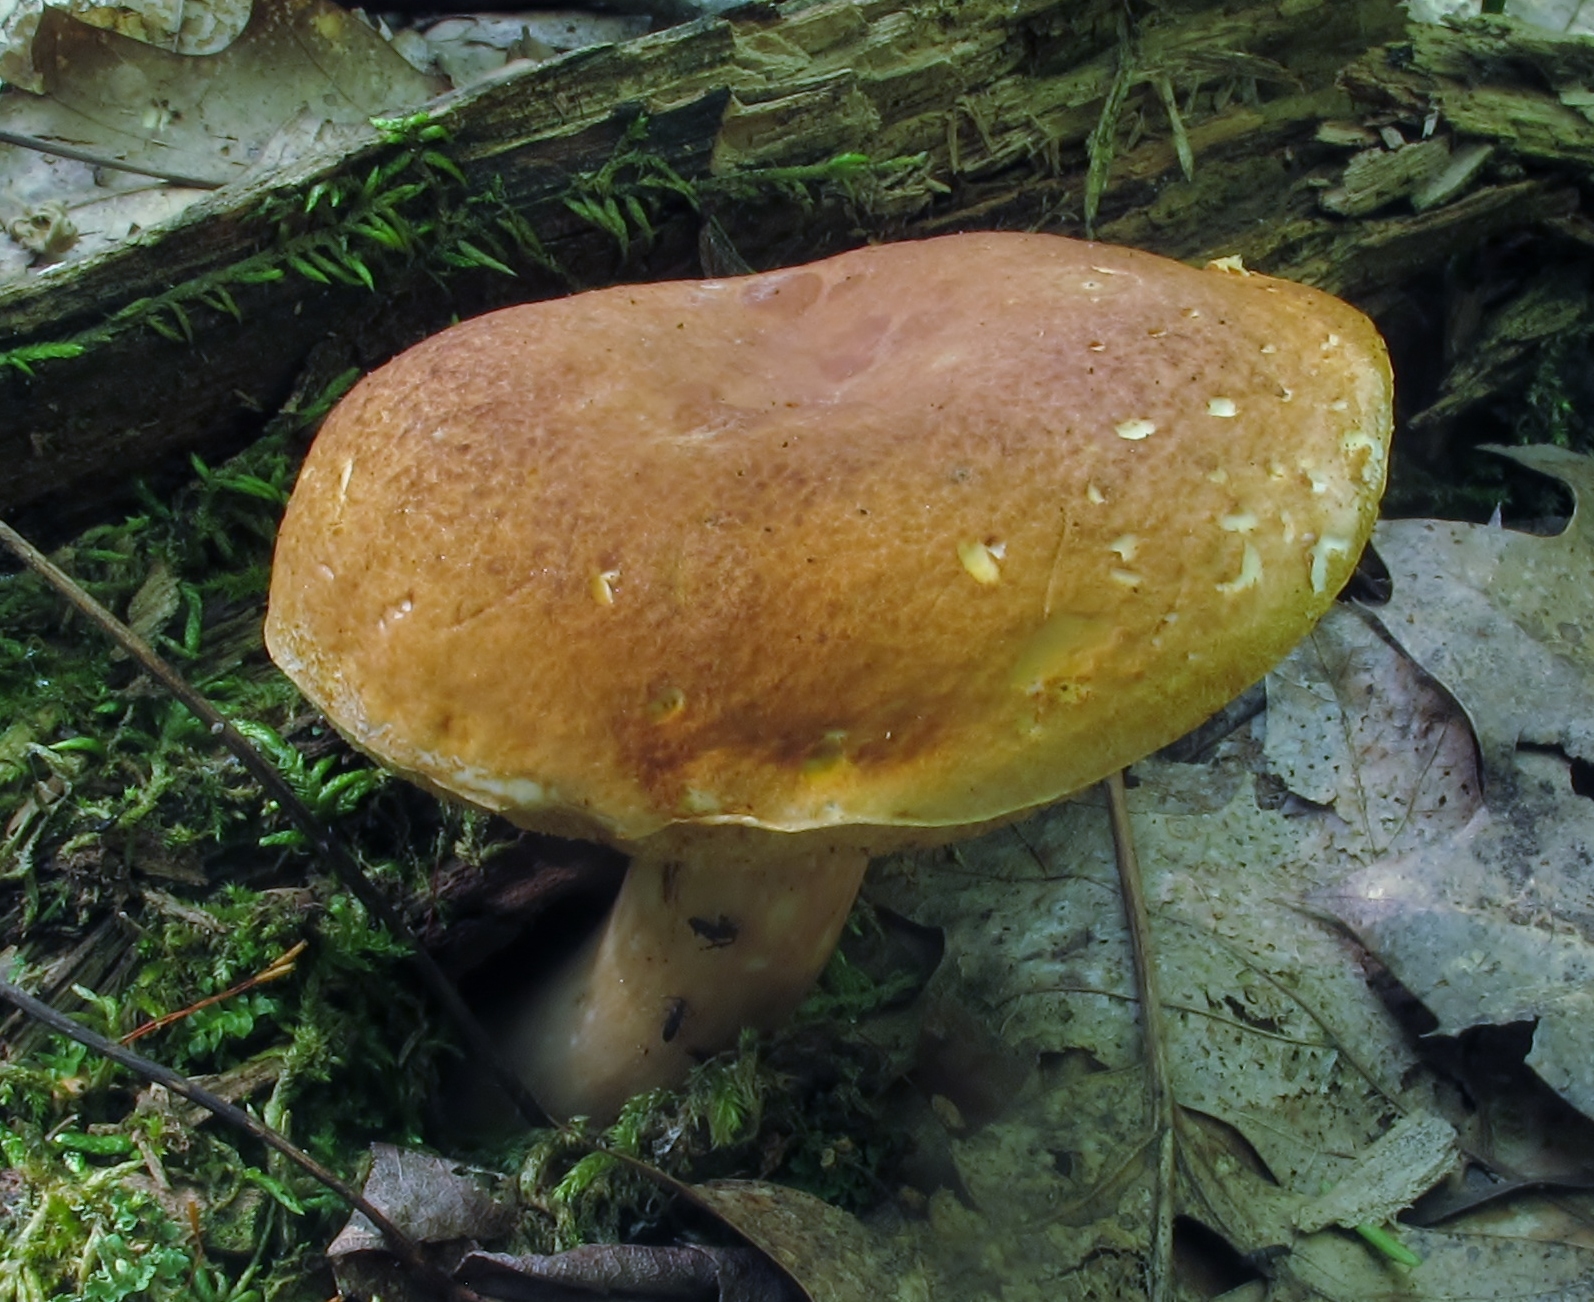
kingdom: Fungi
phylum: Basidiomycota
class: Agaricomycetes
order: Boletales
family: Boletaceae
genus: Xanthoconium
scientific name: Xanthoconium affine
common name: Spotted bolete
